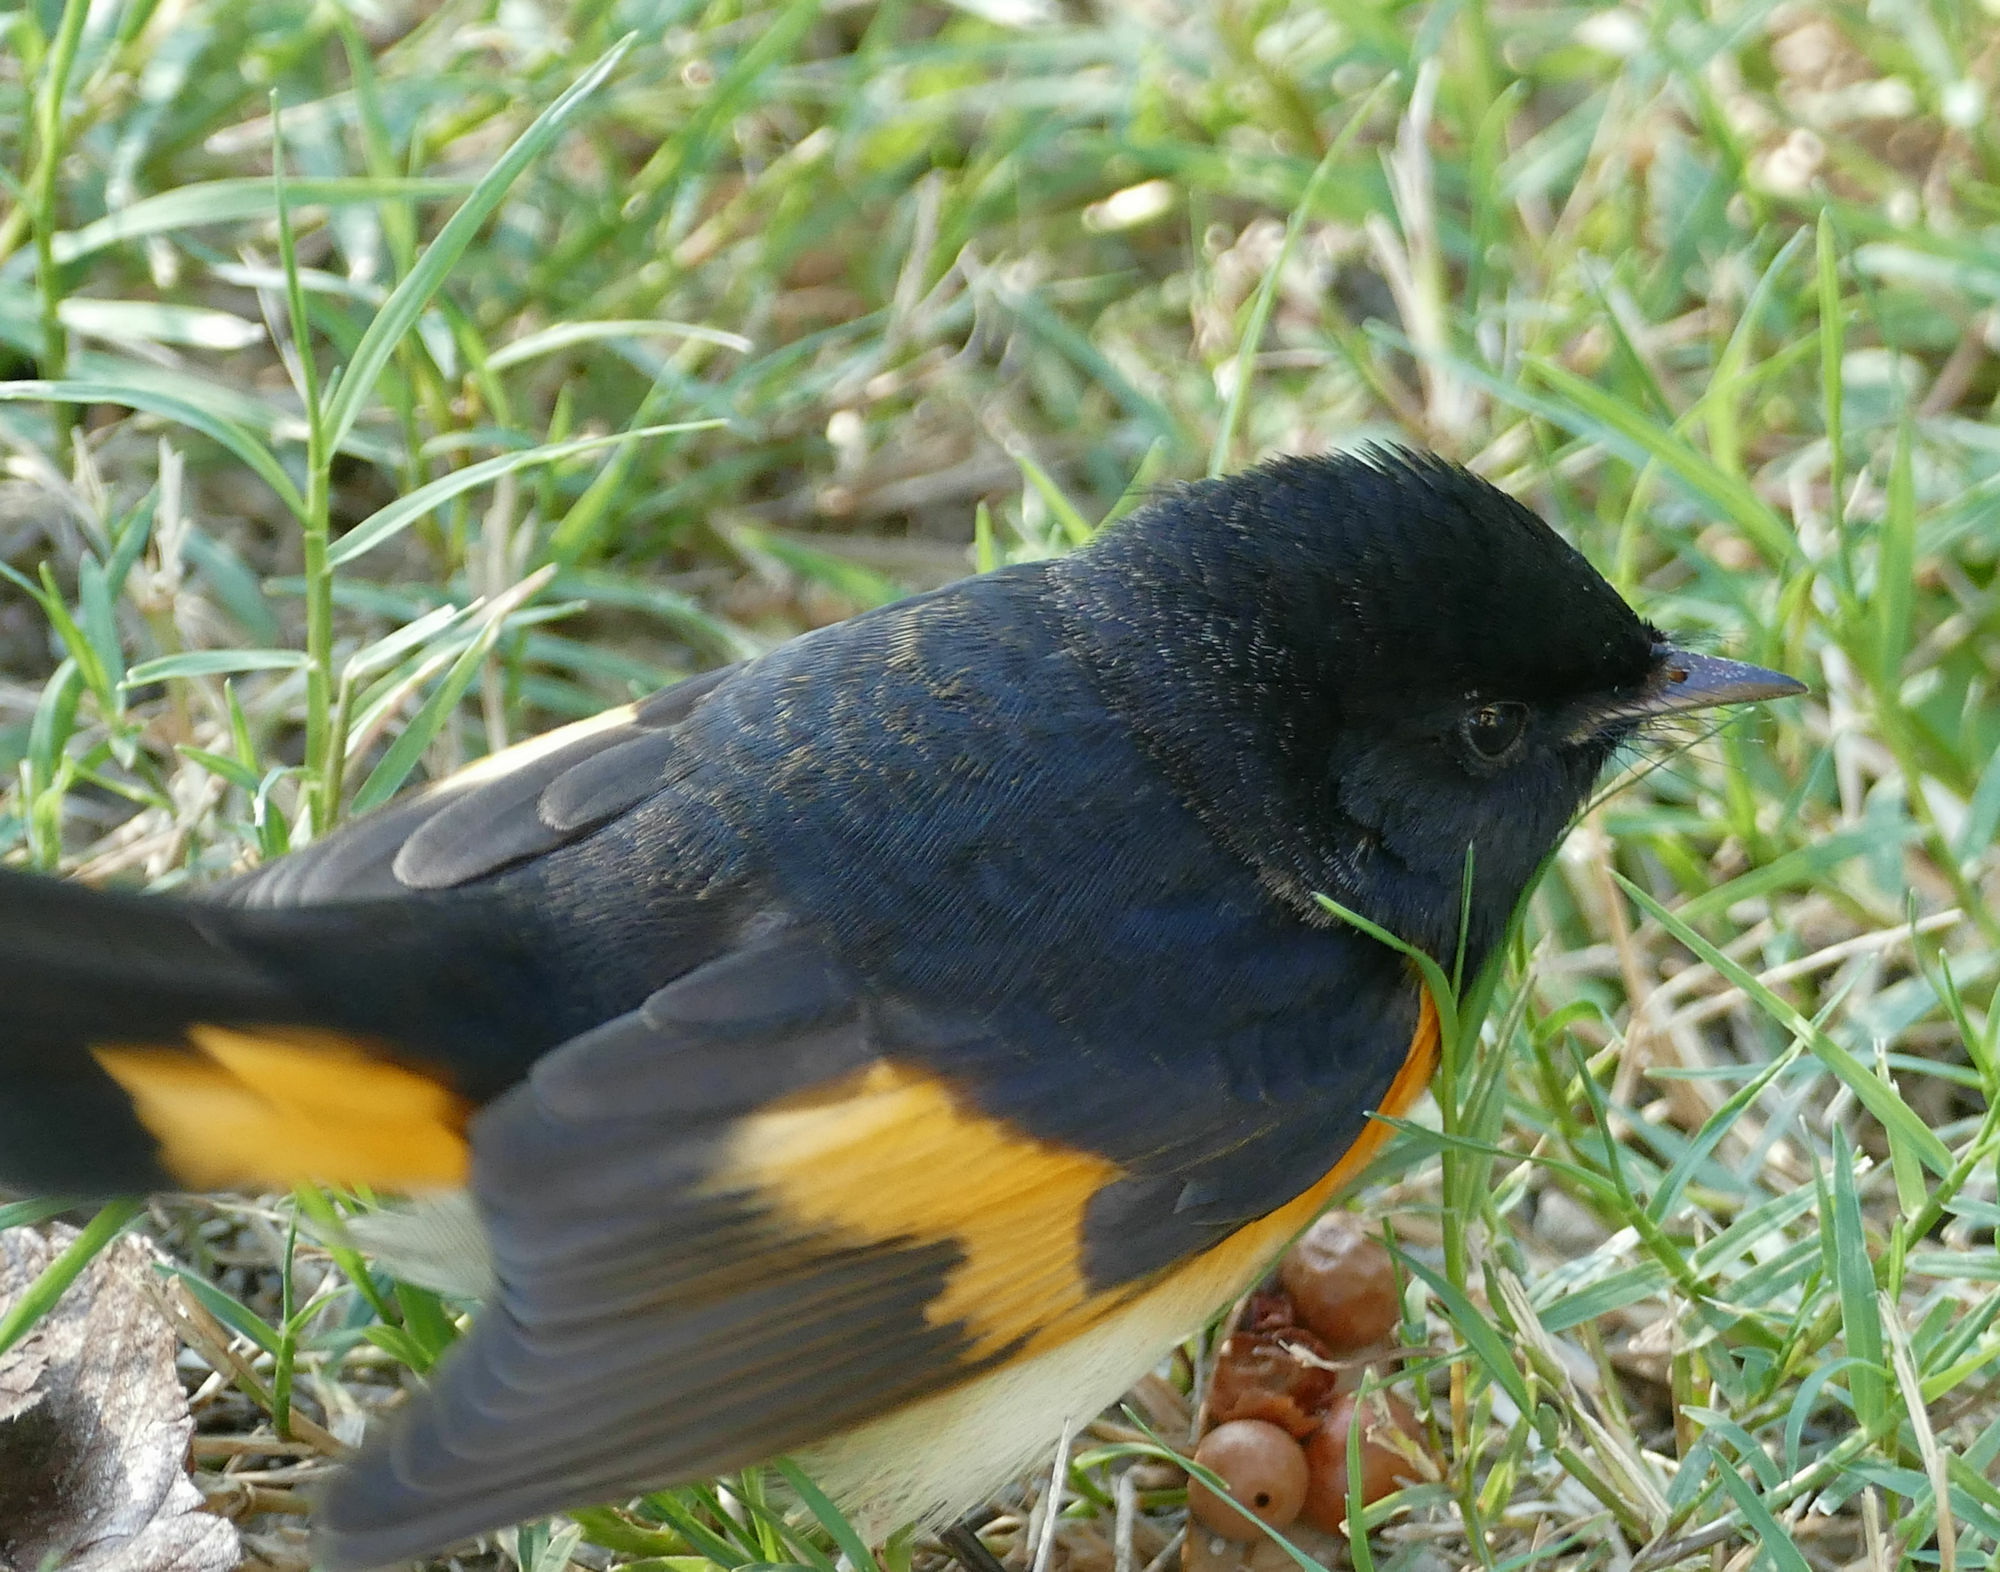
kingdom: Animalia
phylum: Chordata
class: Aves
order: Passeriformes
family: Parulidae
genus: Setophaga
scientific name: Setophaga ruticilla
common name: American redstart
